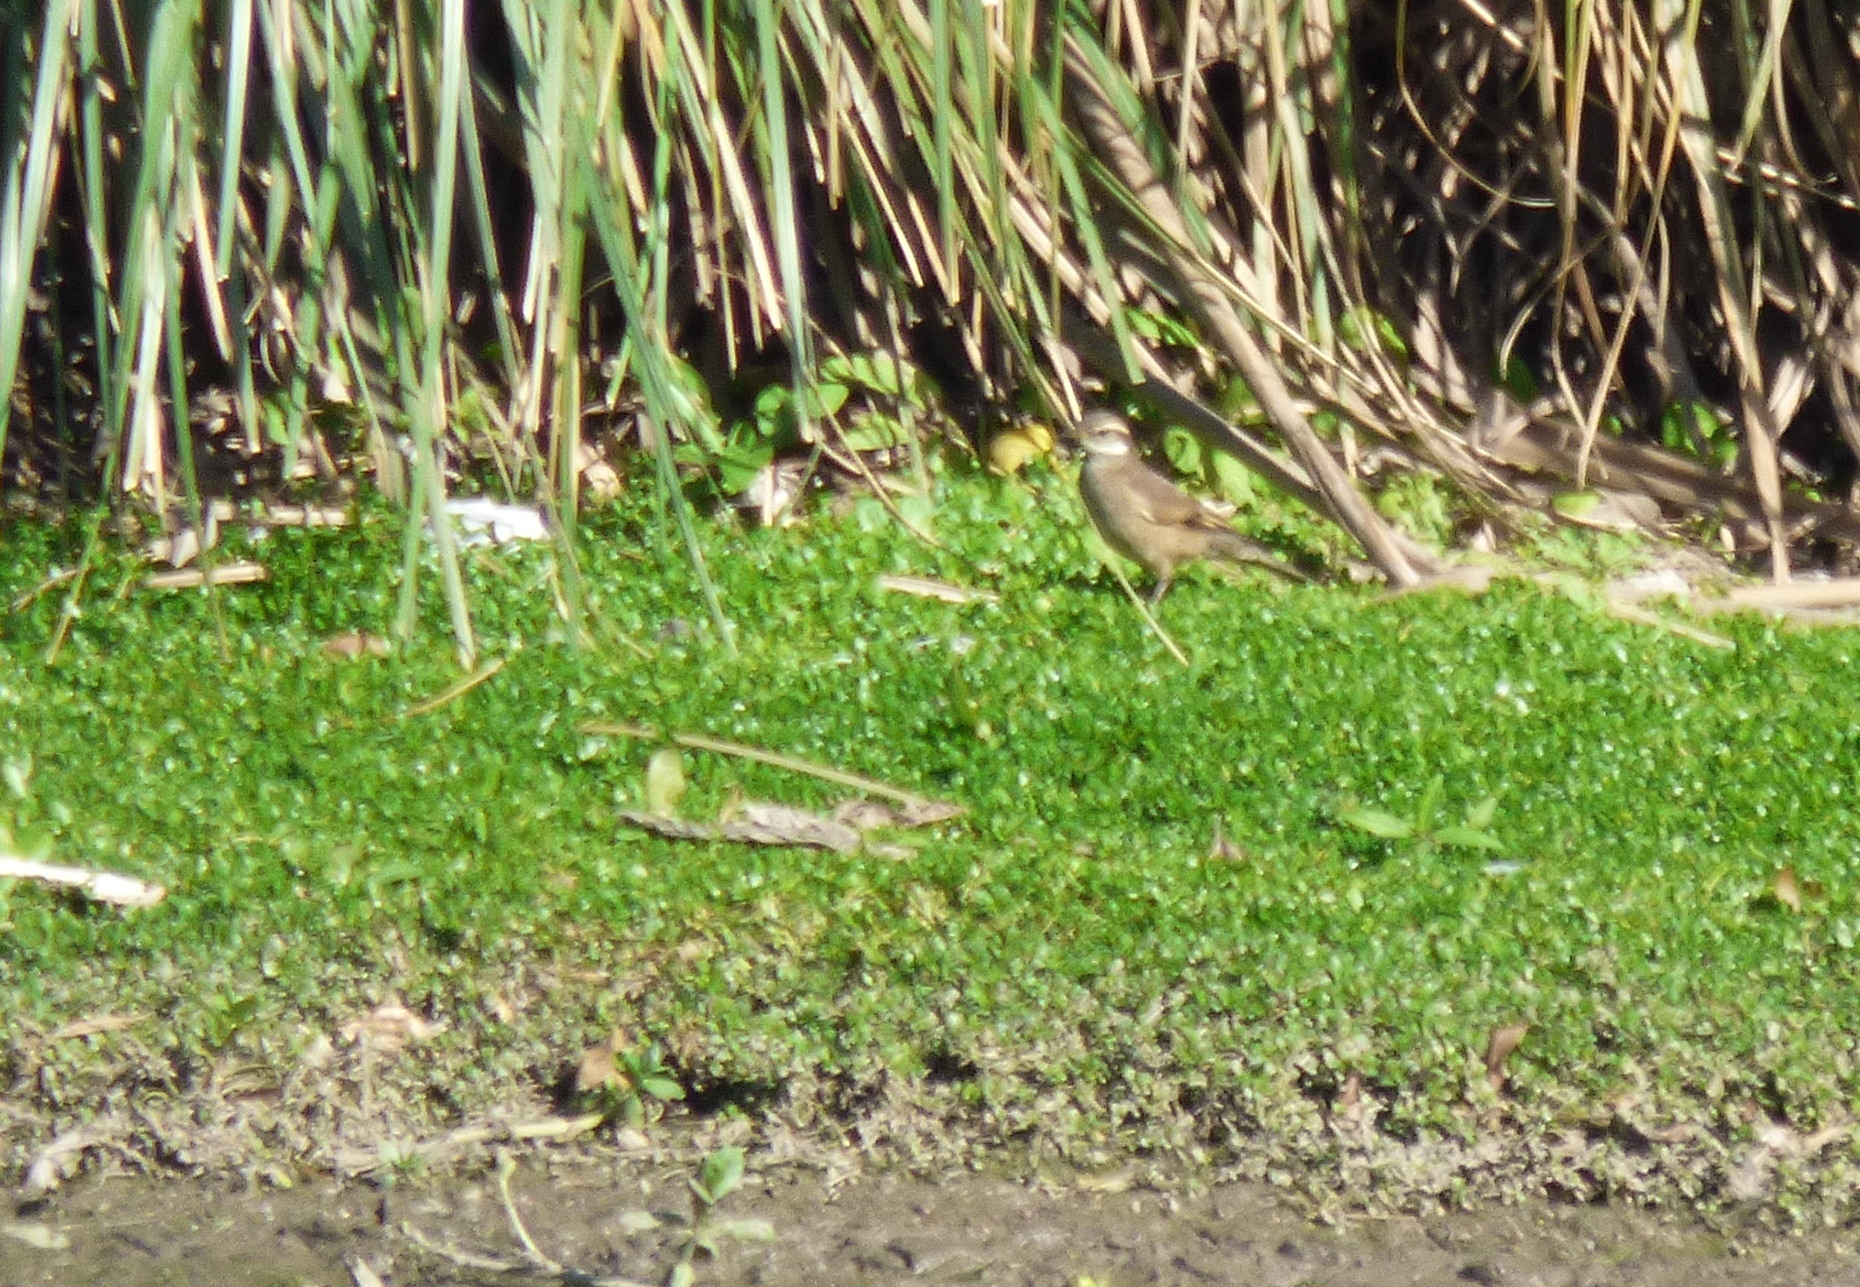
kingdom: Animalia
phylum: Chordata
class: Aves
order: Passeriformes
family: Furnariidae
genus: Cinclodes
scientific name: Cinclodes fuscus
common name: Buff-winged cinclodes
